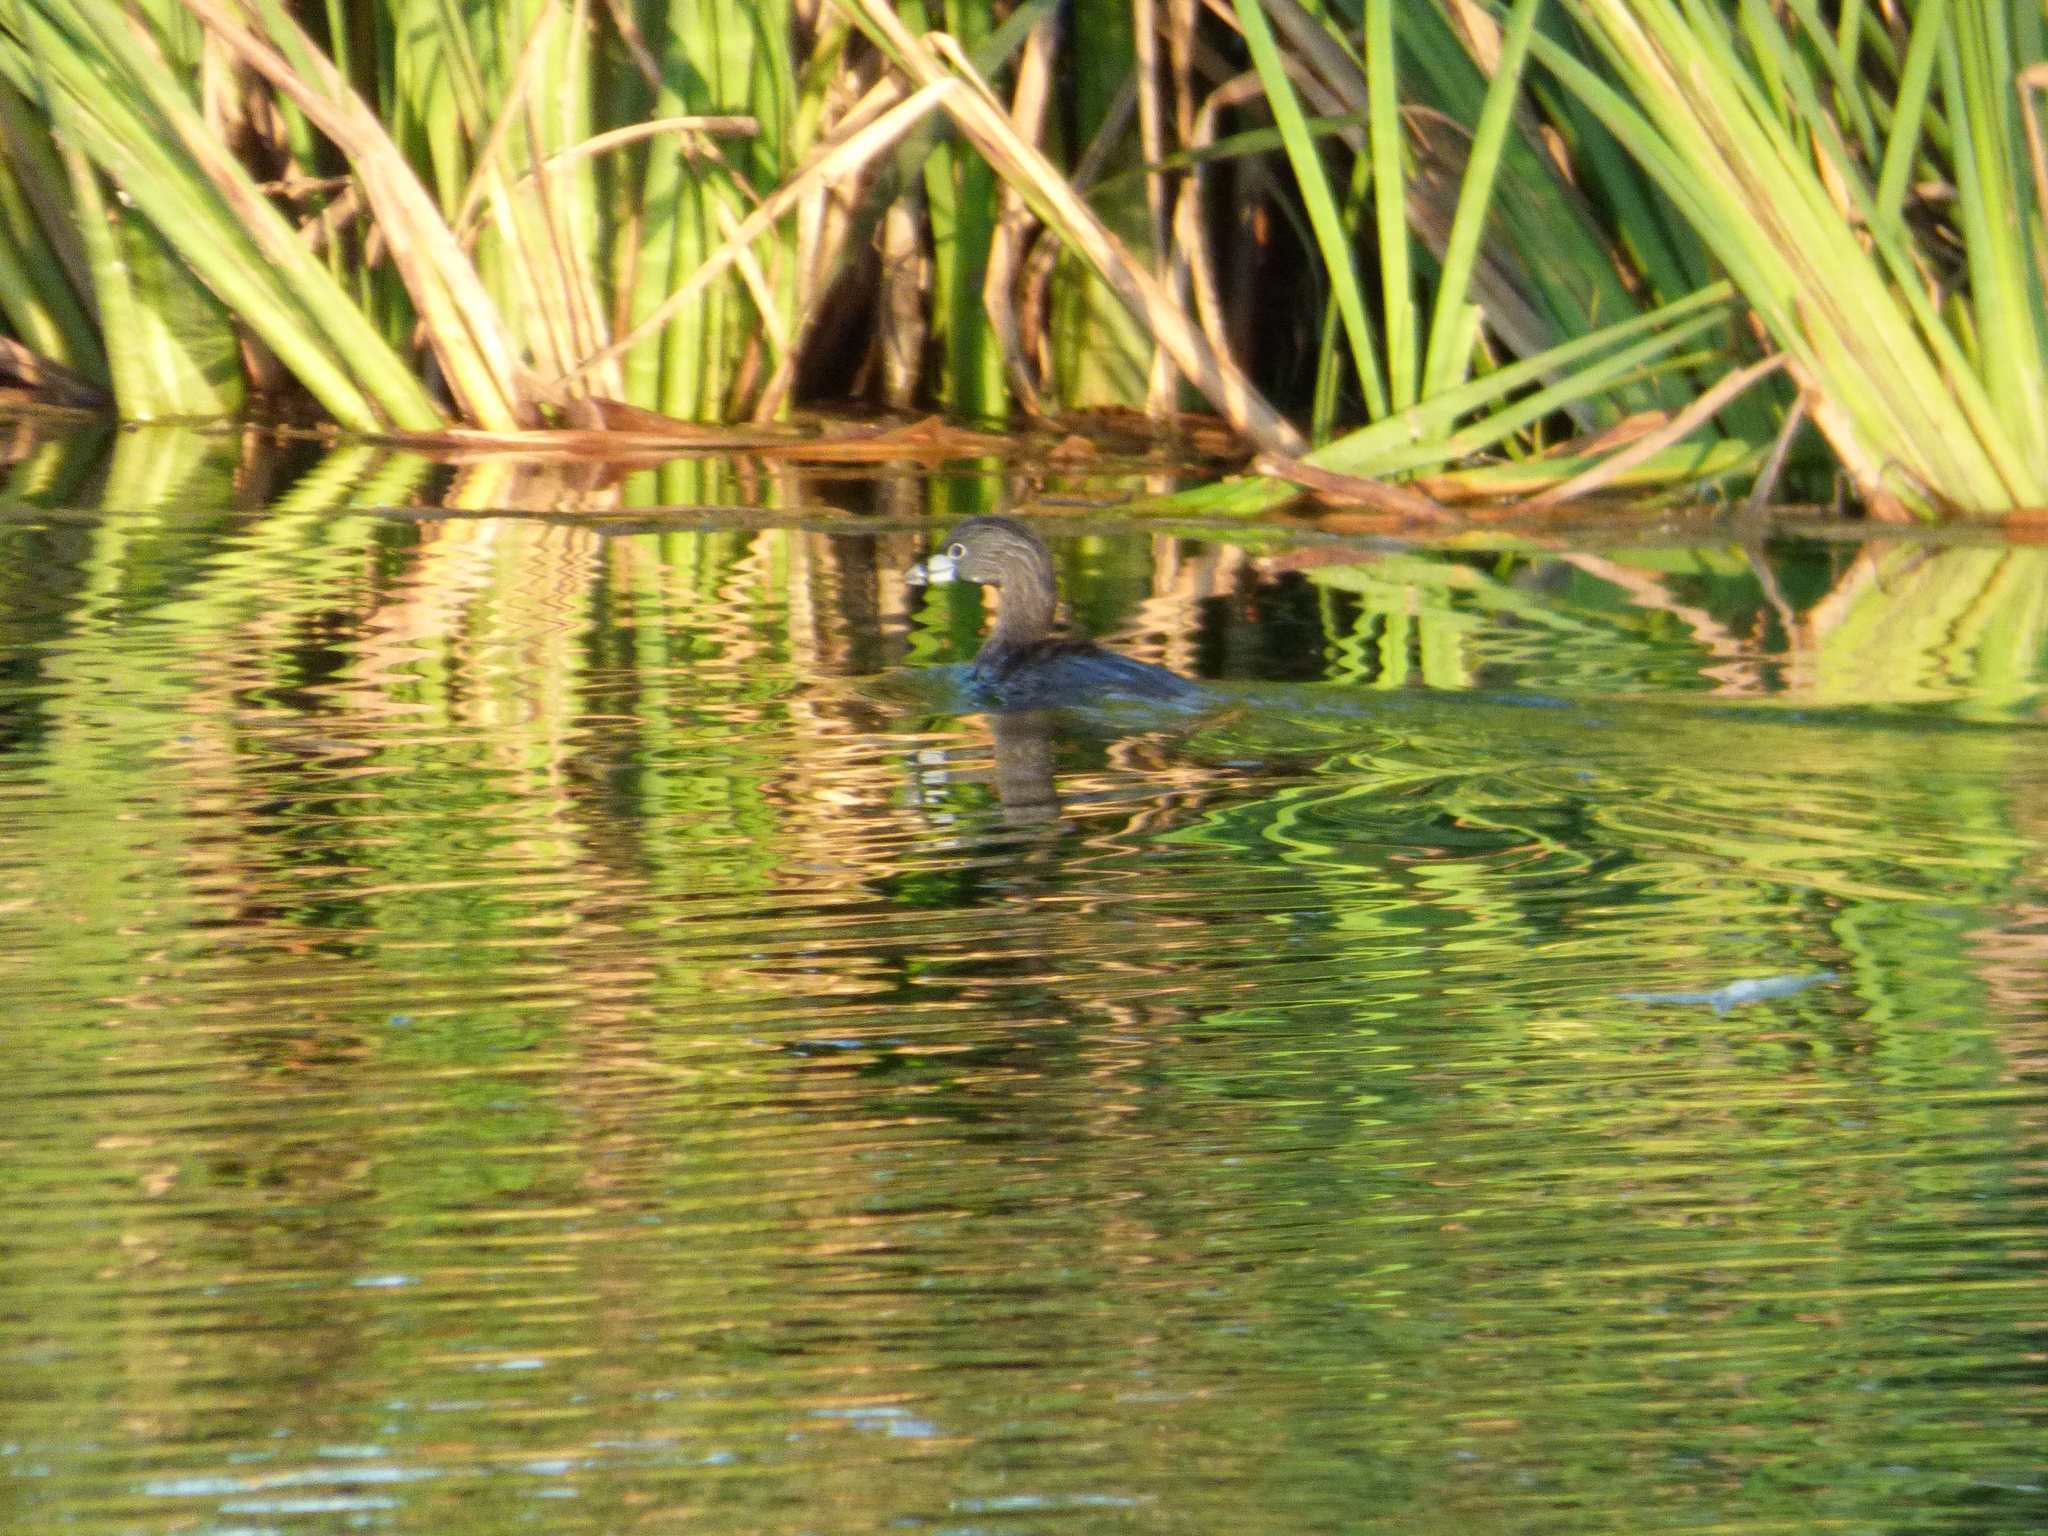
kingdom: Animalia
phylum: Chordata
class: Aves
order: Podicipediformes
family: Podicipedidae
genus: Podilymbus
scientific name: Podilymbus podiceps
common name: Pied-billed grebe
